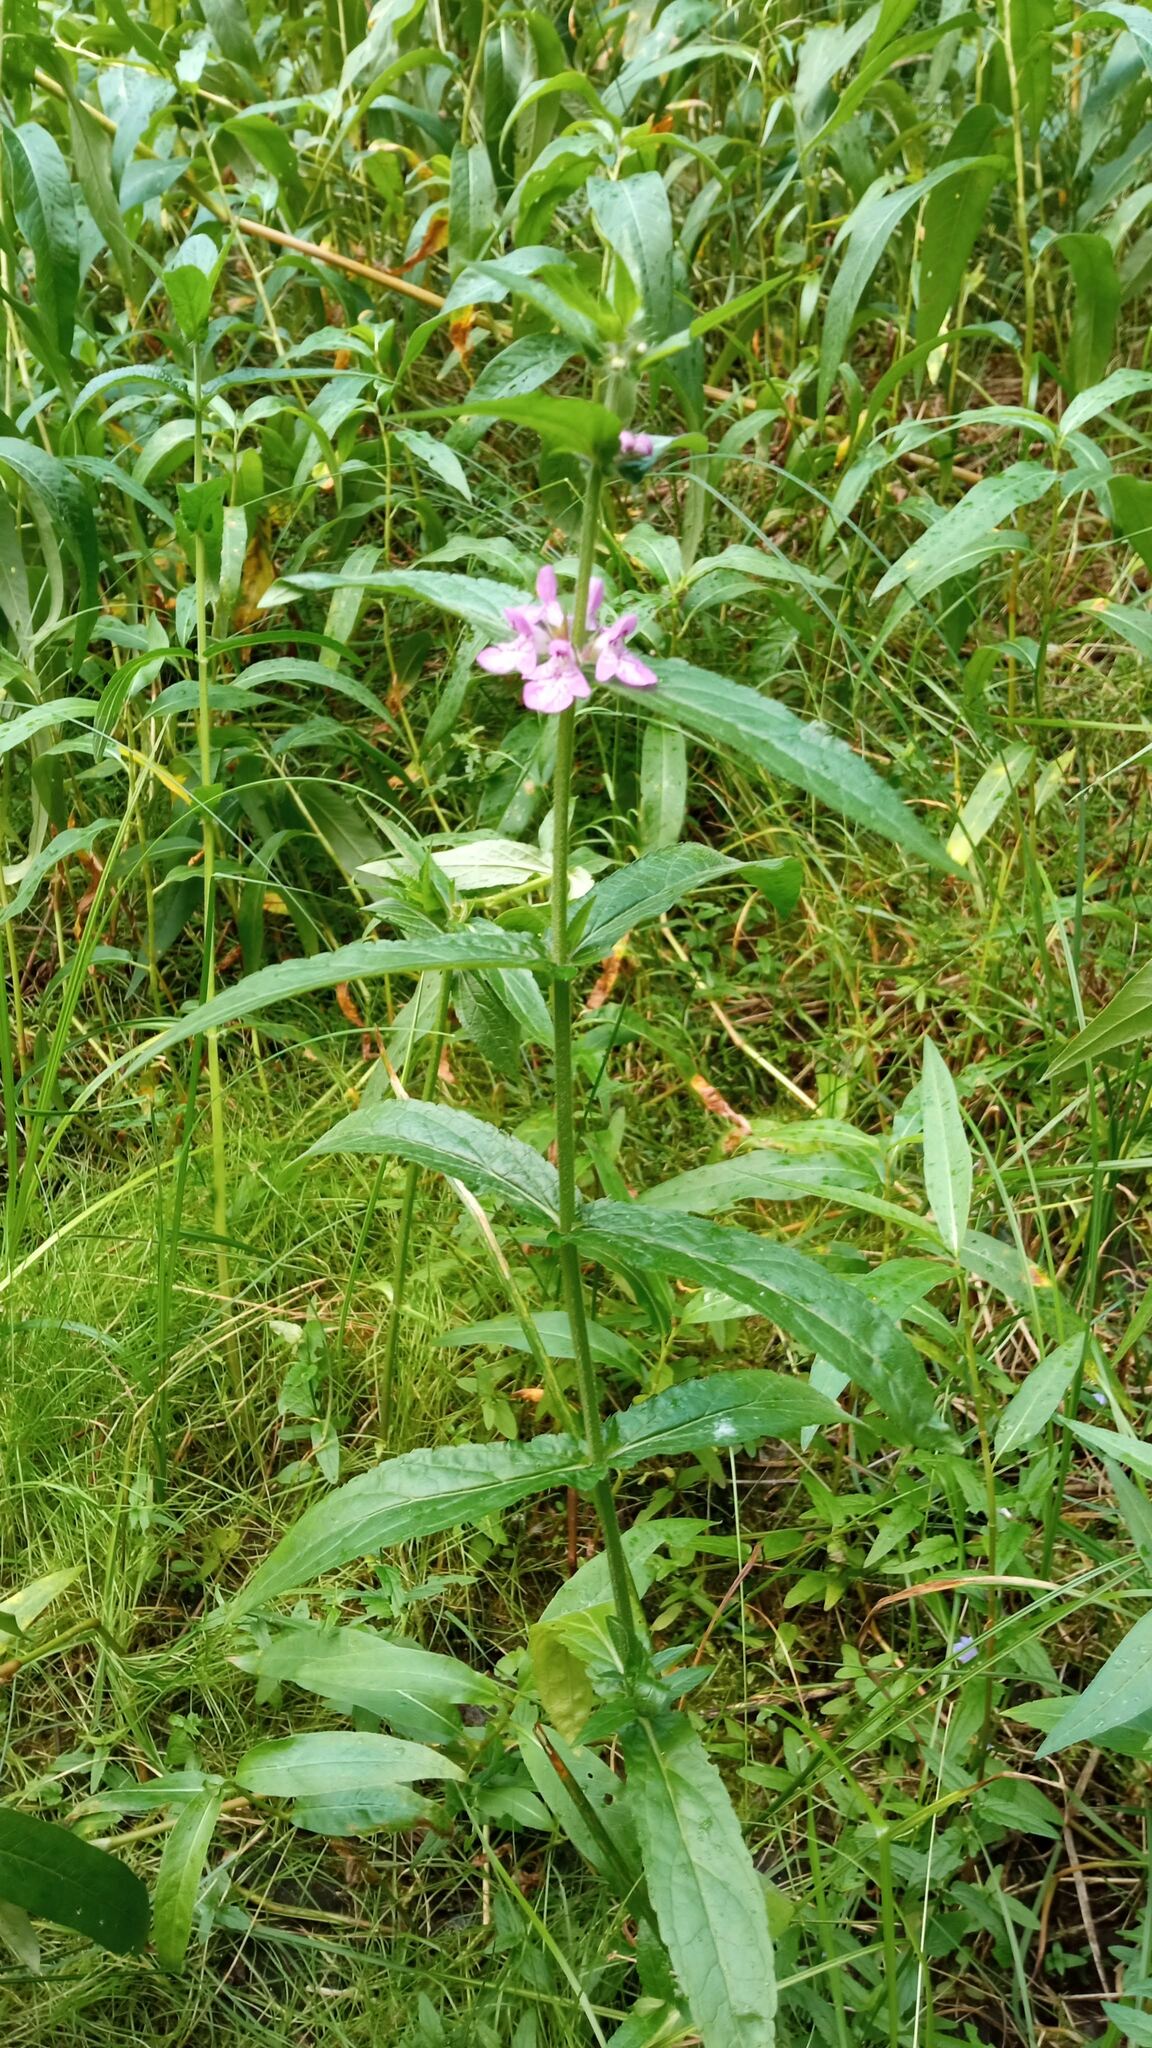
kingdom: Plantae
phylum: Tracheophyta
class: Magnoliopsida
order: Lamiales
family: Lamiaceae
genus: Stachys
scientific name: Stachys palustris
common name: Marsh woundwort
